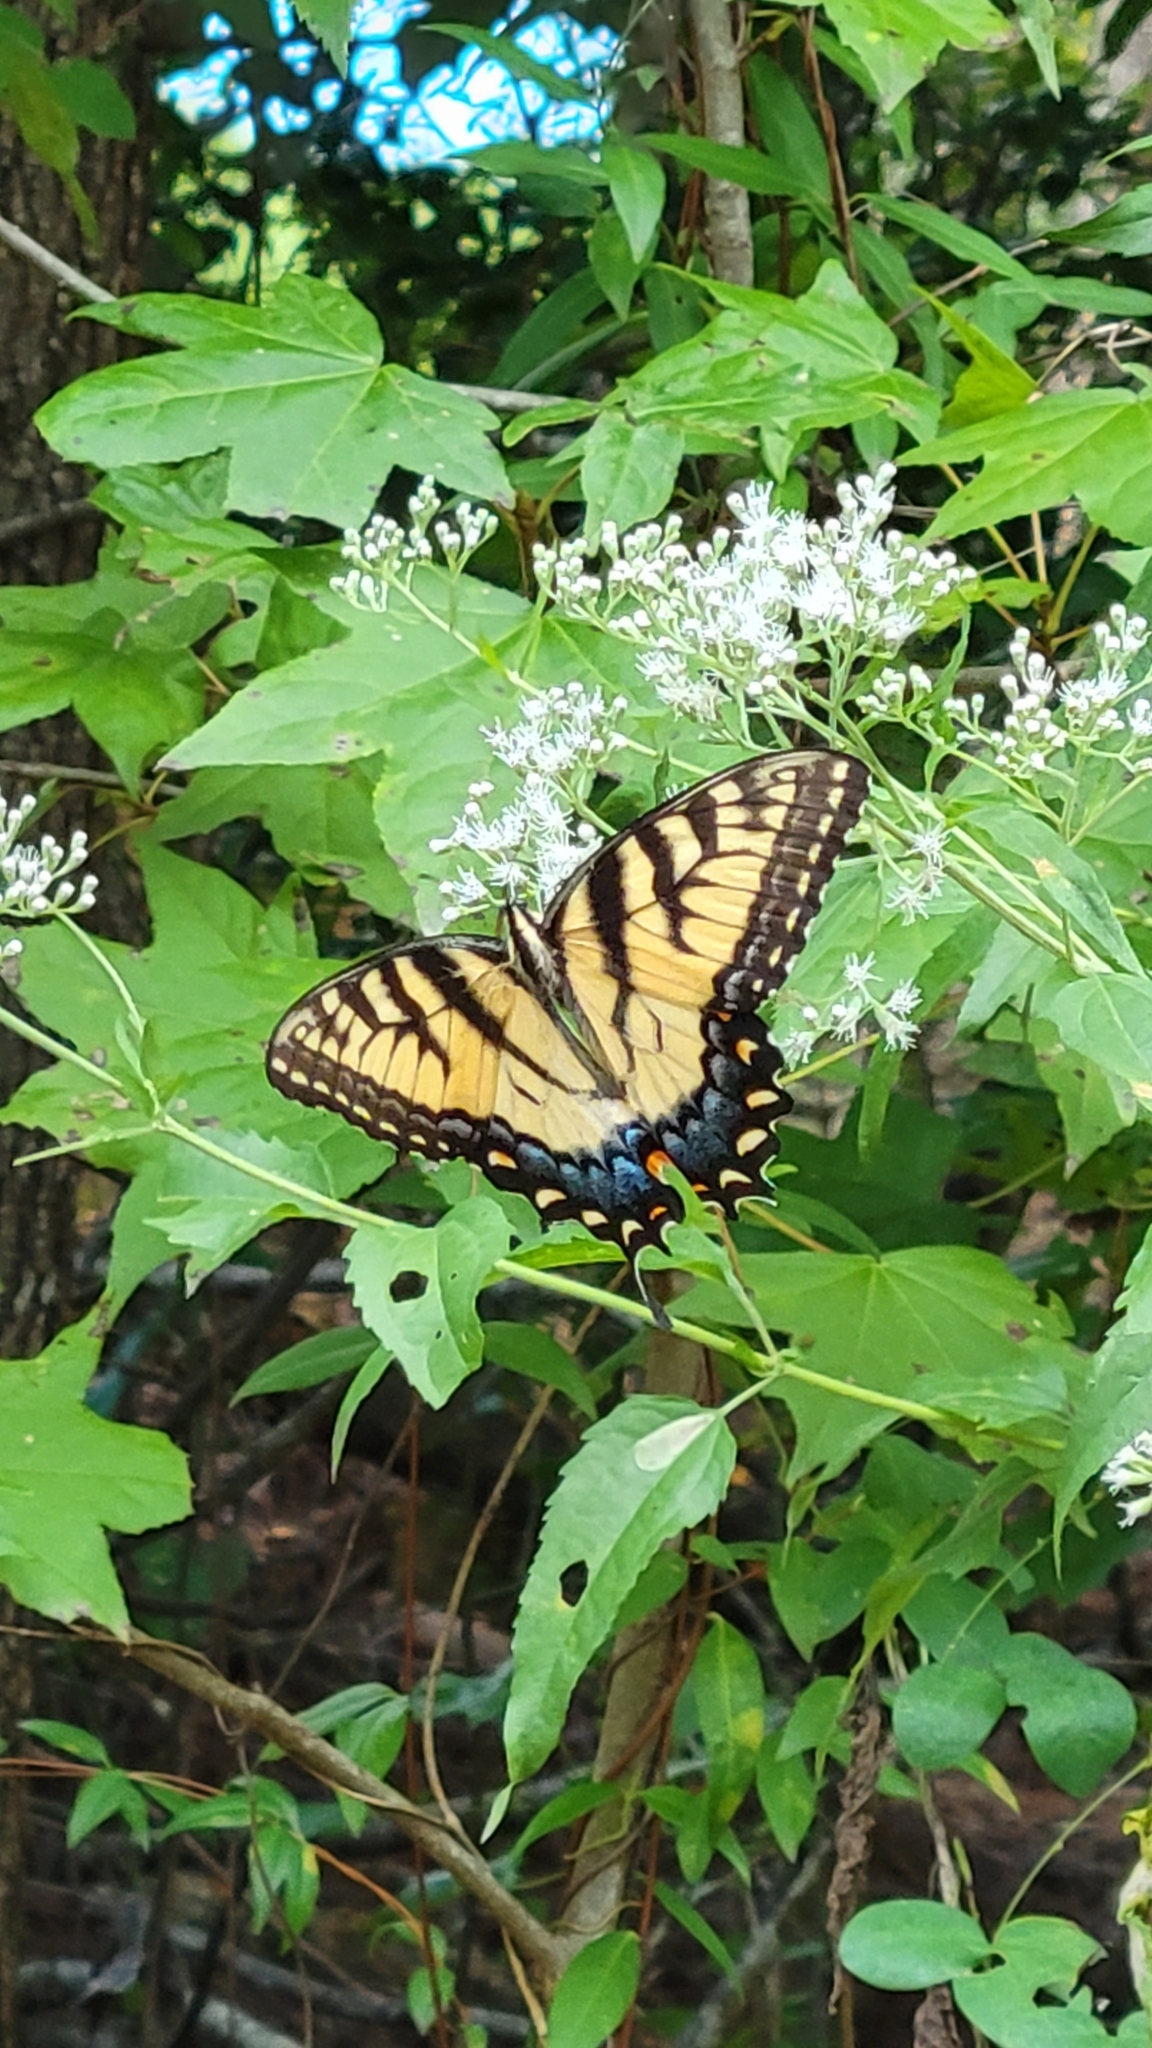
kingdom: Animalia
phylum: Arthropoda
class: Insecta
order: Lepidoptera
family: Papilionidae
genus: Papilio
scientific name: Papilio glaucus
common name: Tiger swallowtail
